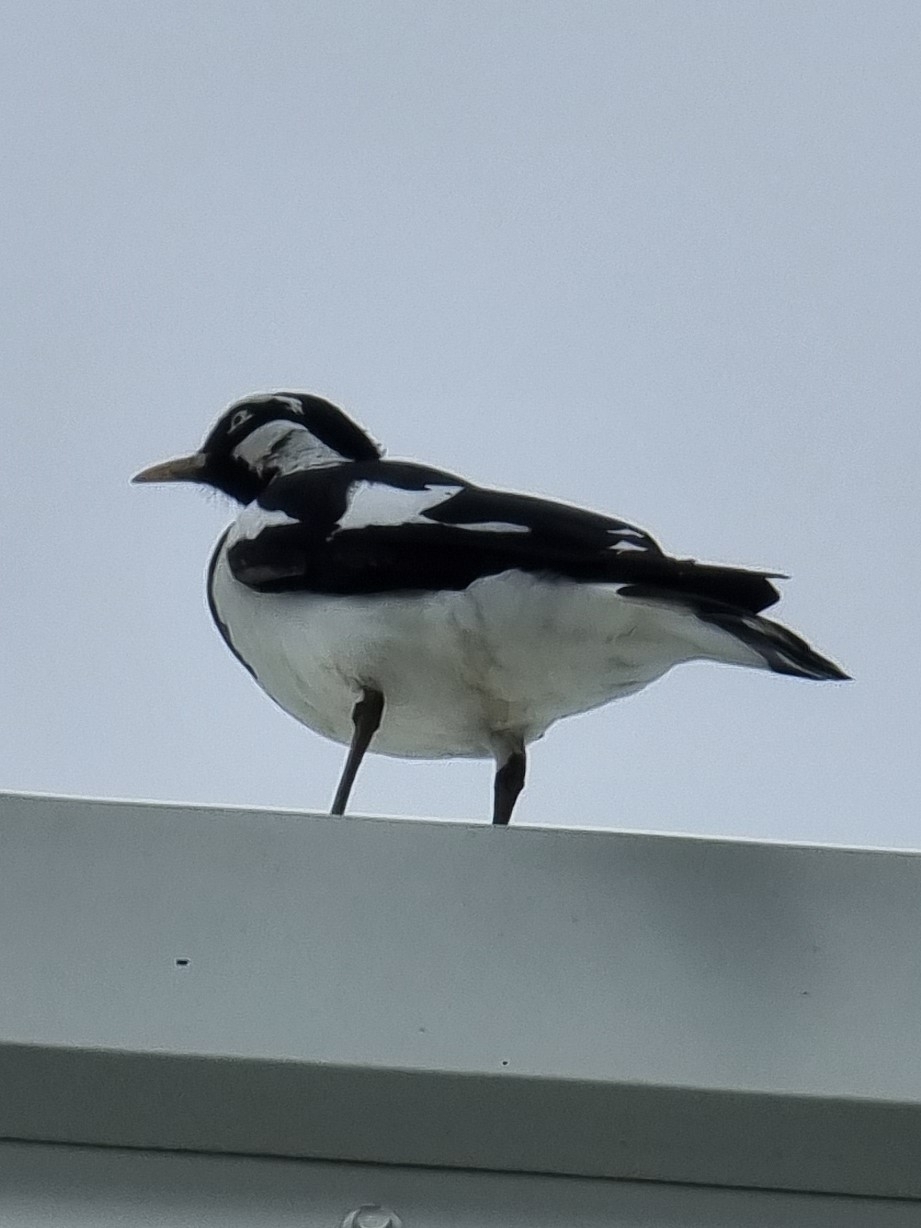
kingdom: Animalia
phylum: Chordata
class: Aves
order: Passeriformes
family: Monarchidae
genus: Grallina
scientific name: Grallina cyanoleuca
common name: Magpie-lark
